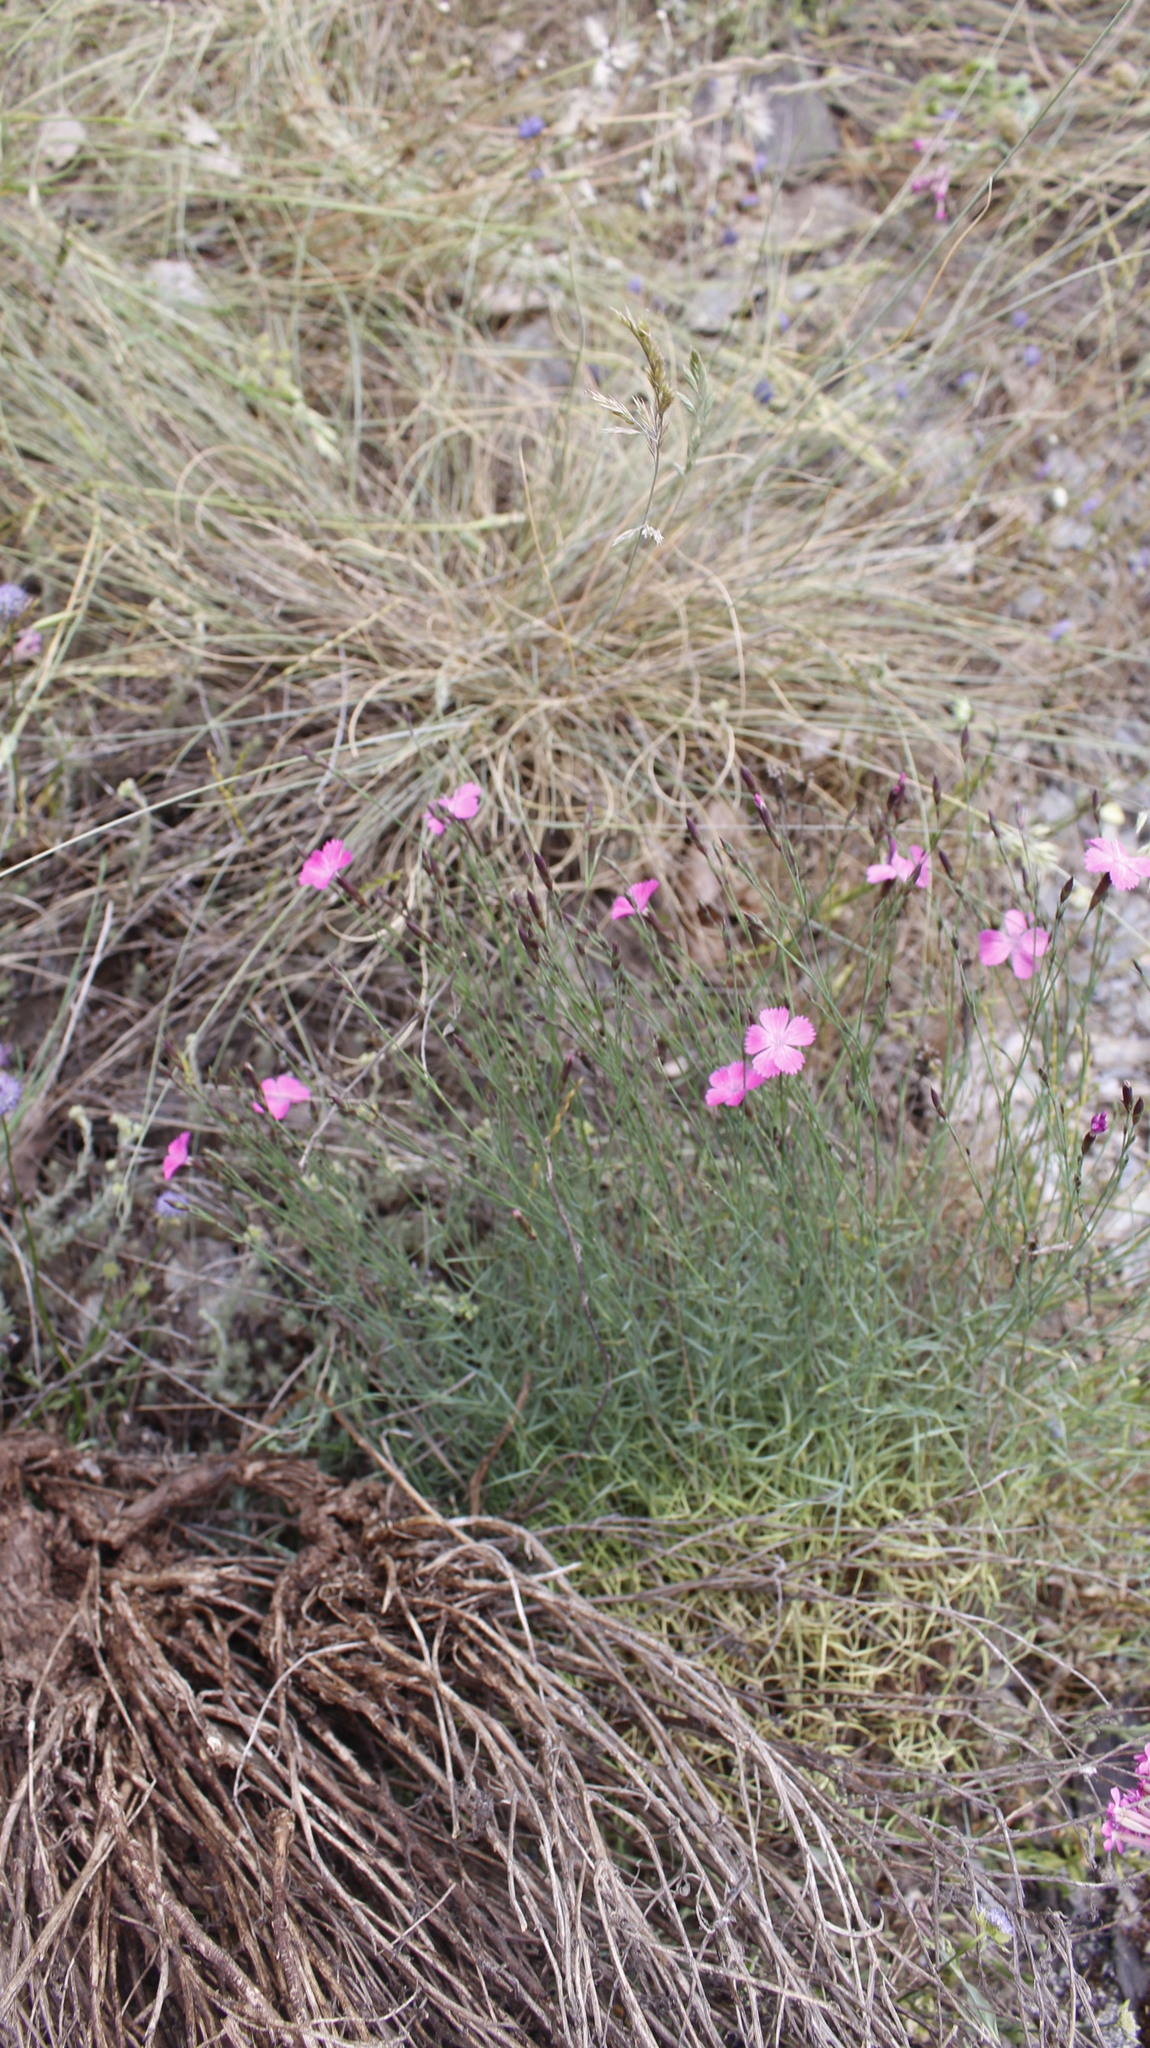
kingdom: Plantae
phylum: Tracheophyta
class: Magnoliopsida
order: Caryophyllales
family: Caryophyllaceae
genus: Dianthus
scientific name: Dianthus graniticus
